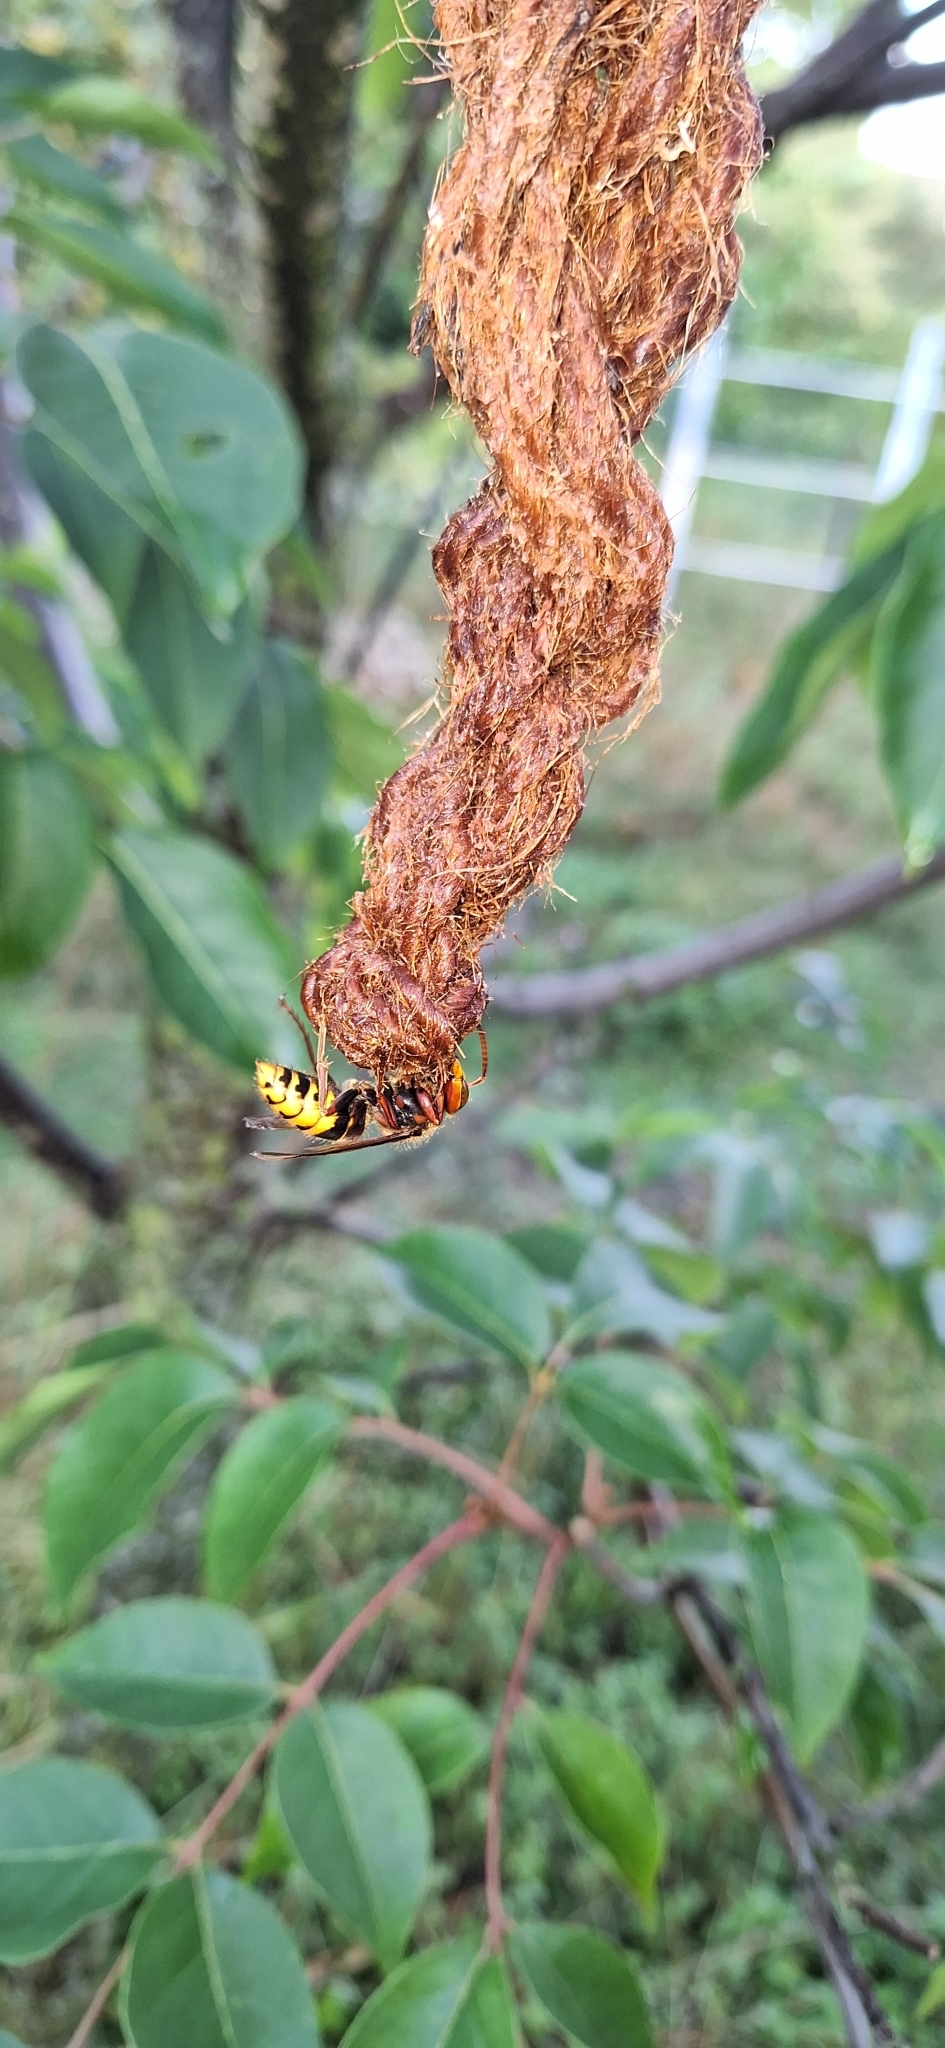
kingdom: Animalia
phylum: Arthropoda
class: Insecta
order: Hymenoptera
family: Vespidae
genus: Vespa
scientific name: Vespa crabro
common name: Hornet
